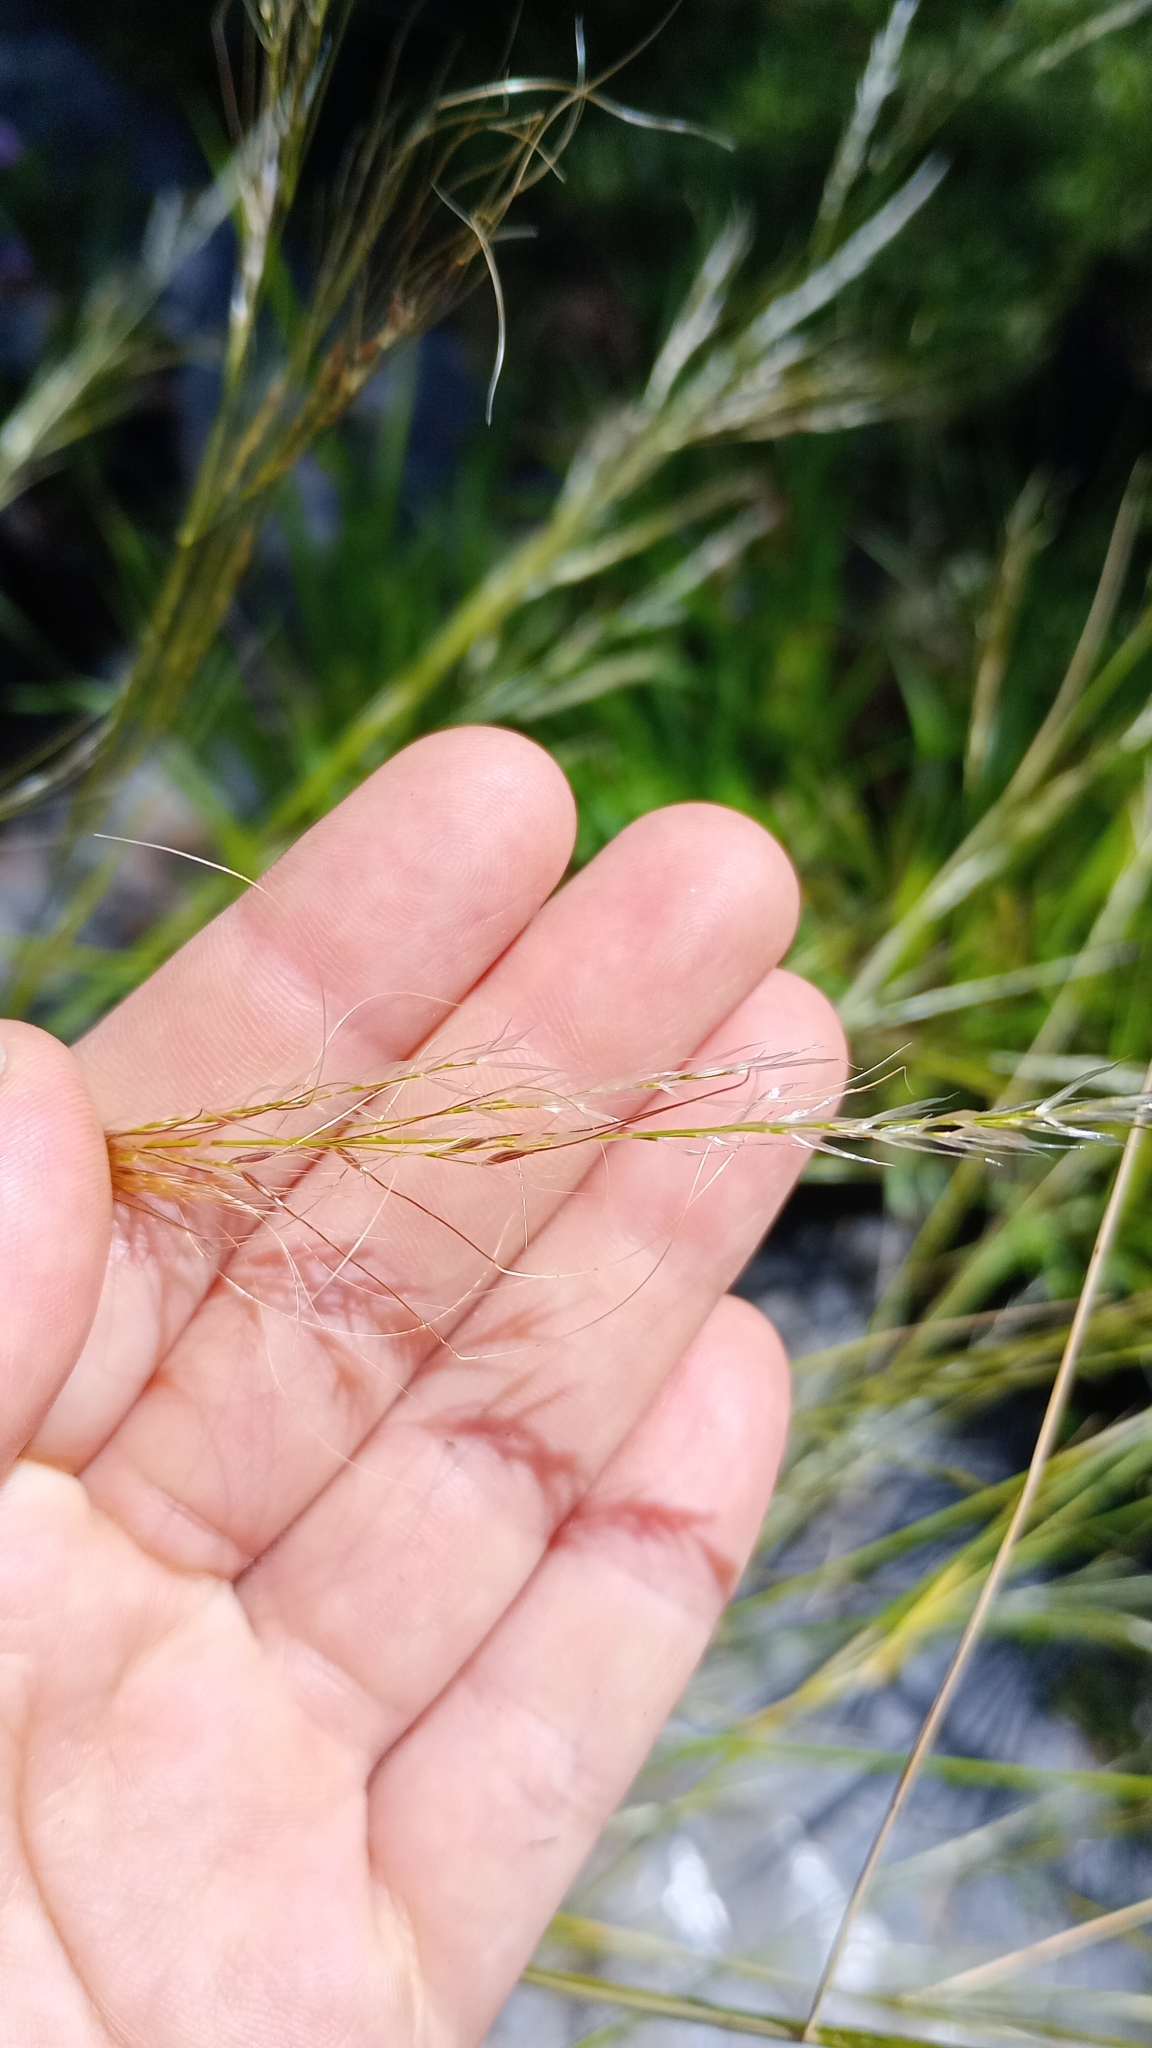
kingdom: Plantae
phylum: Tracheophyta
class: Liliopsida
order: Poales
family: Poaceae
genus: Nassella
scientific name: Nassella hyalina
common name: Spear grass
